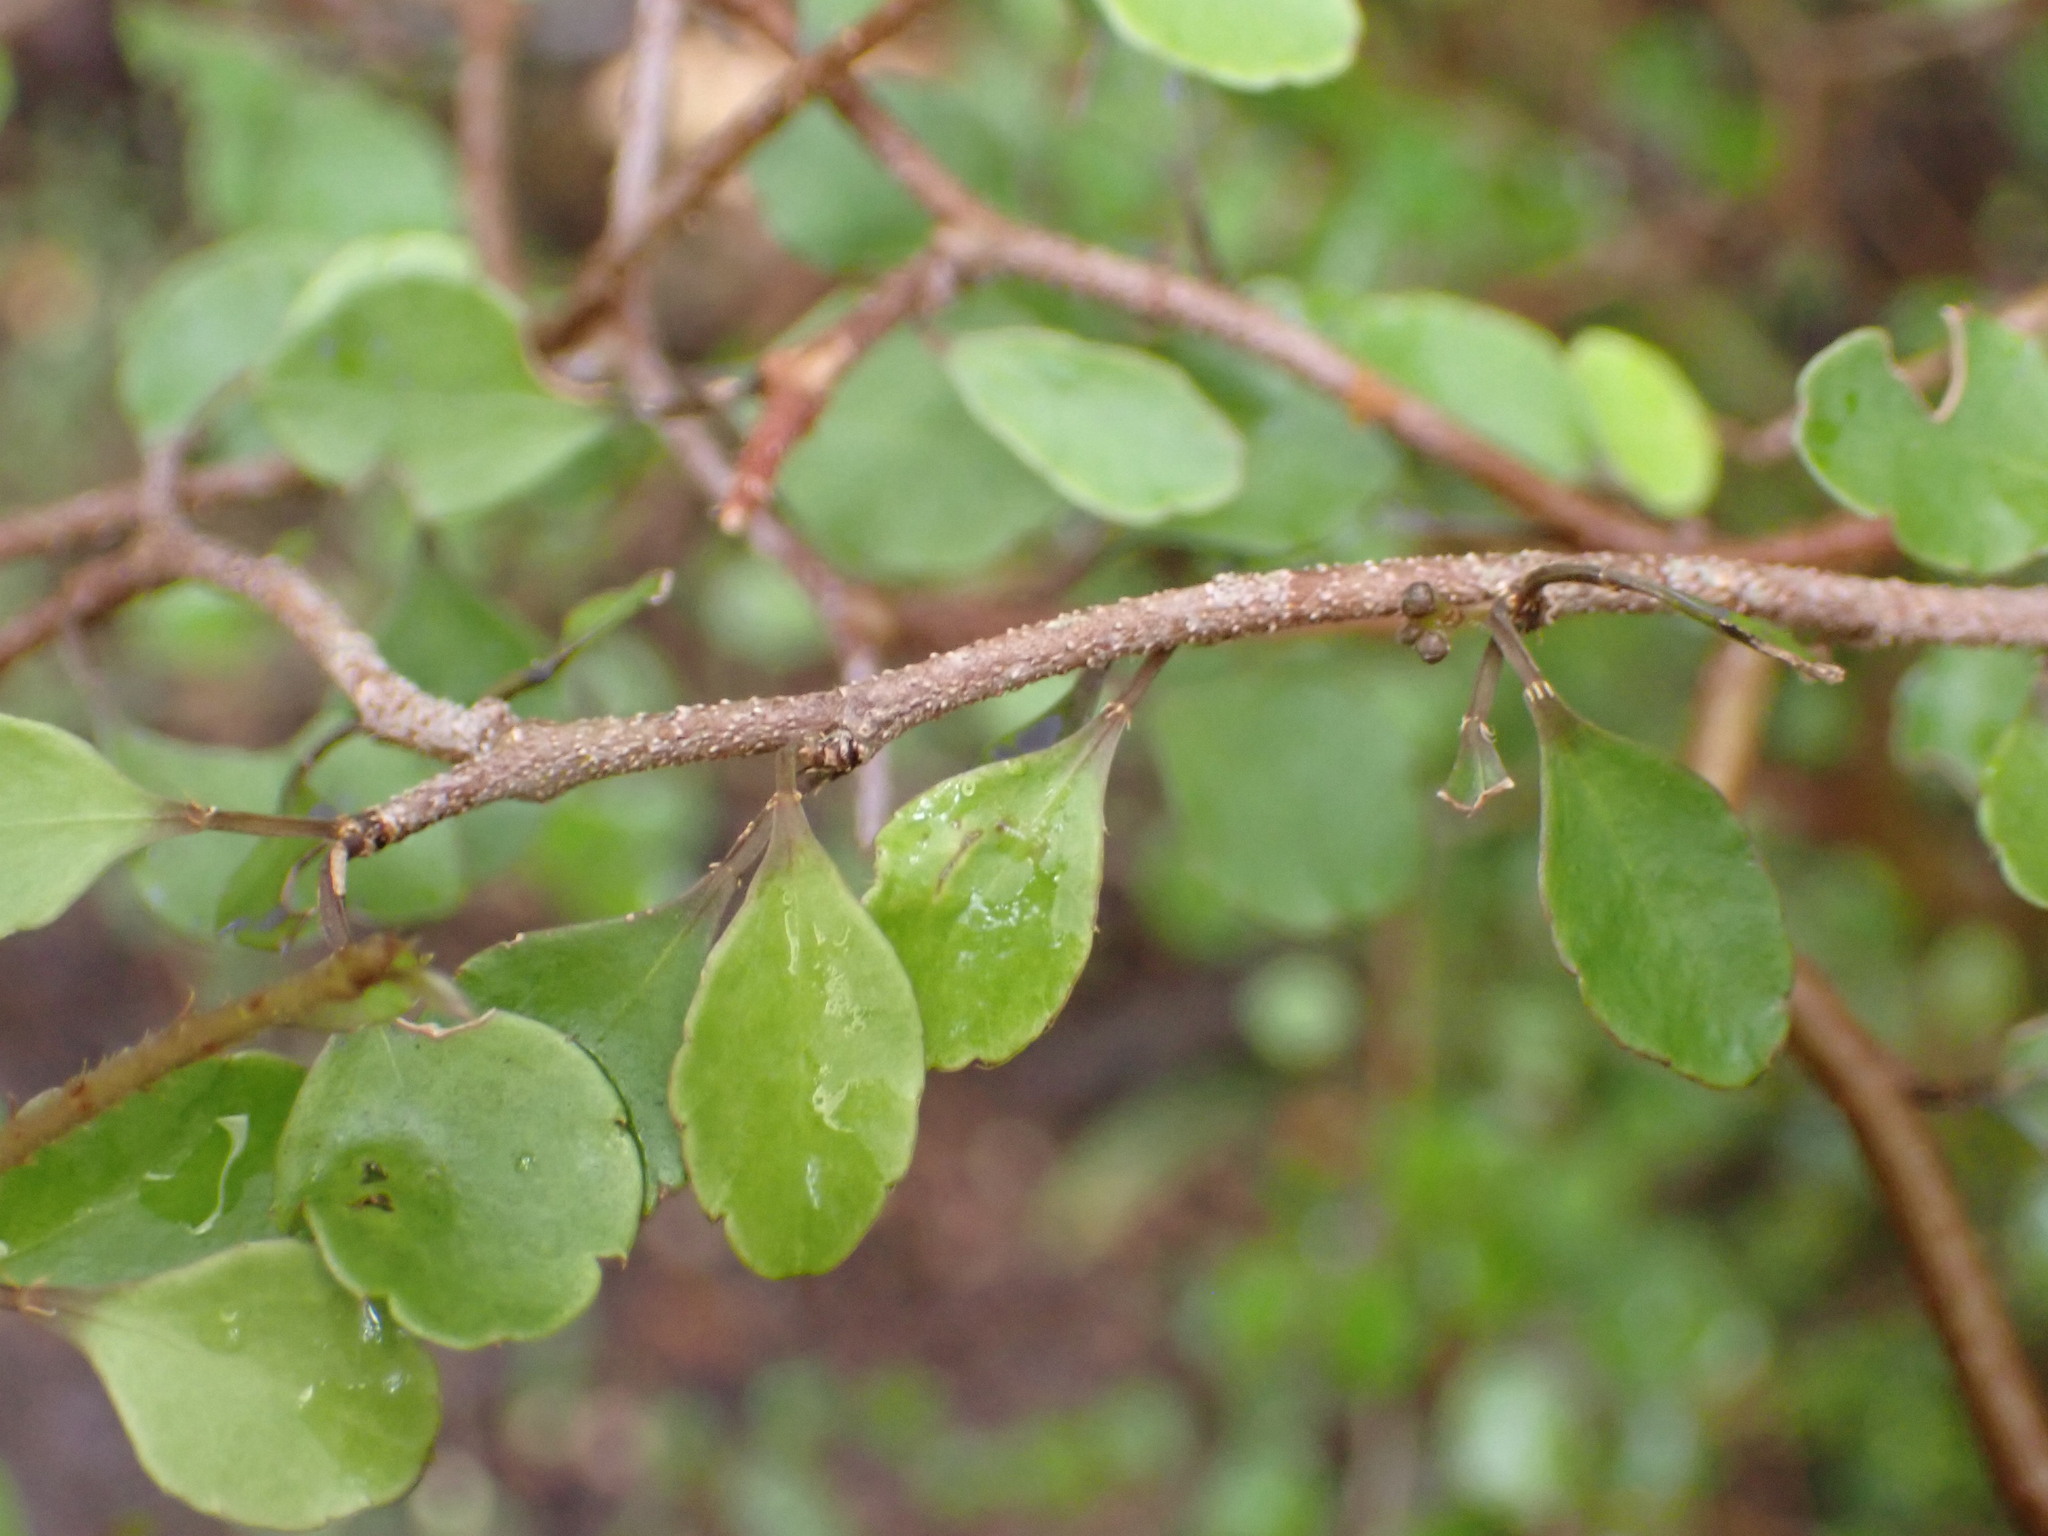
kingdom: Plantae
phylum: Tracheophyta
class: Magnoliopsida
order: Apiales
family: Araliaceae
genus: Raukaua
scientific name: Raukaua anomalus
